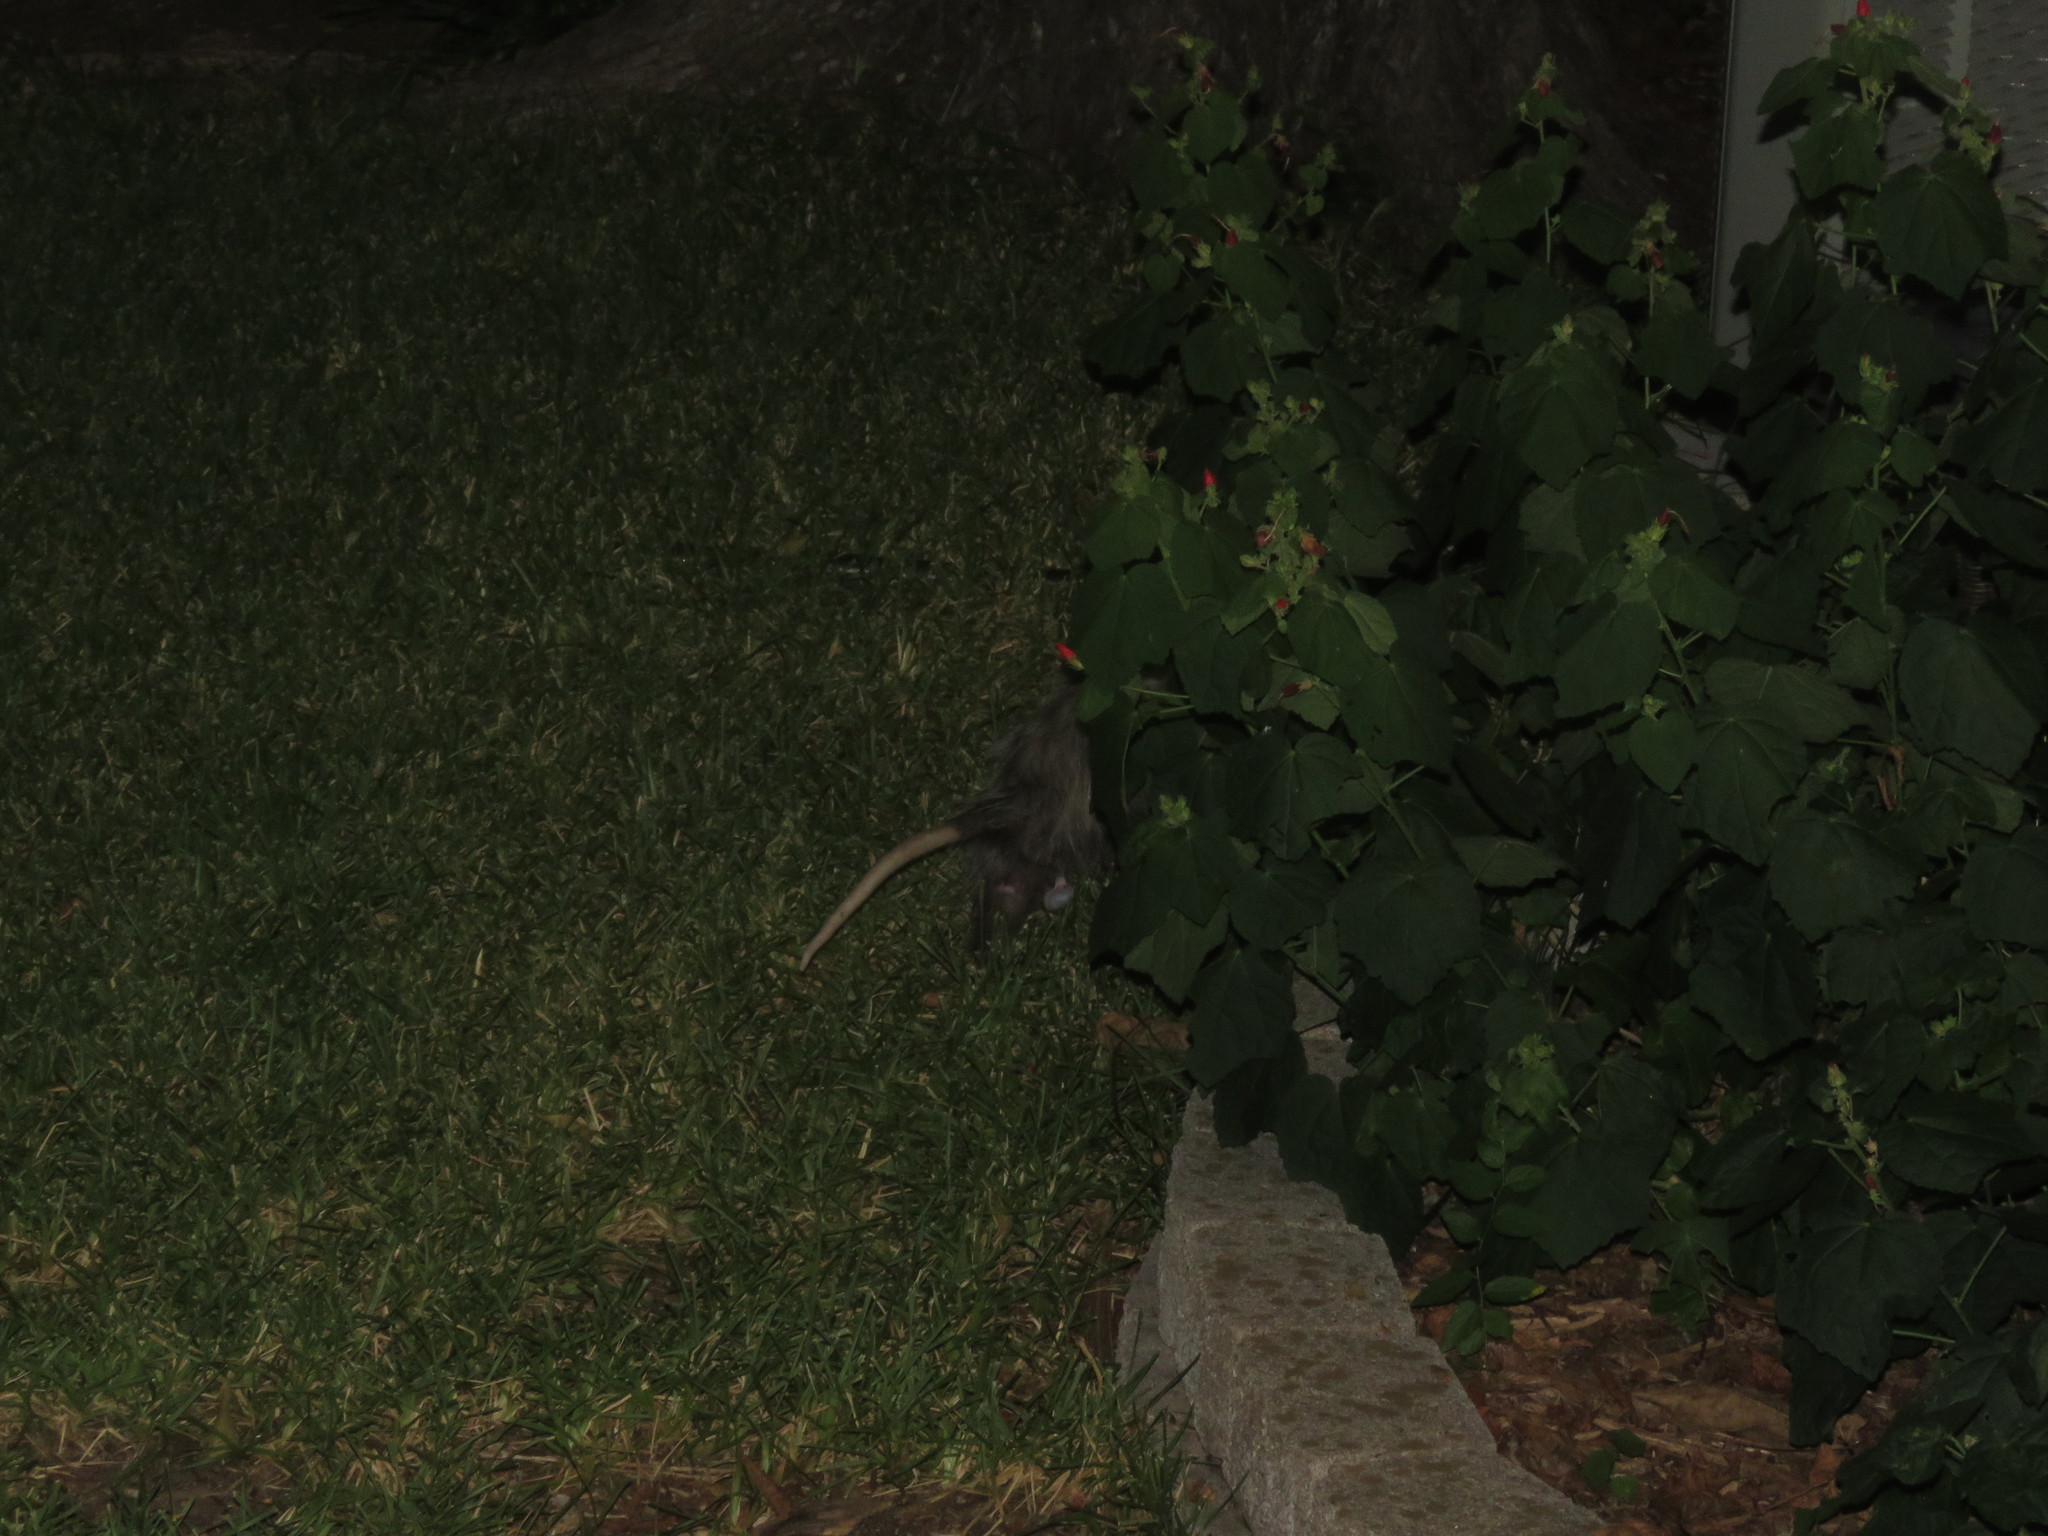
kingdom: Animalia
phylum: Chordata
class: Mammalia
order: Didelphimorphia
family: Didelphidae
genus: Didelphis
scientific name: Didelphis virginiana
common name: Virginia opossum
